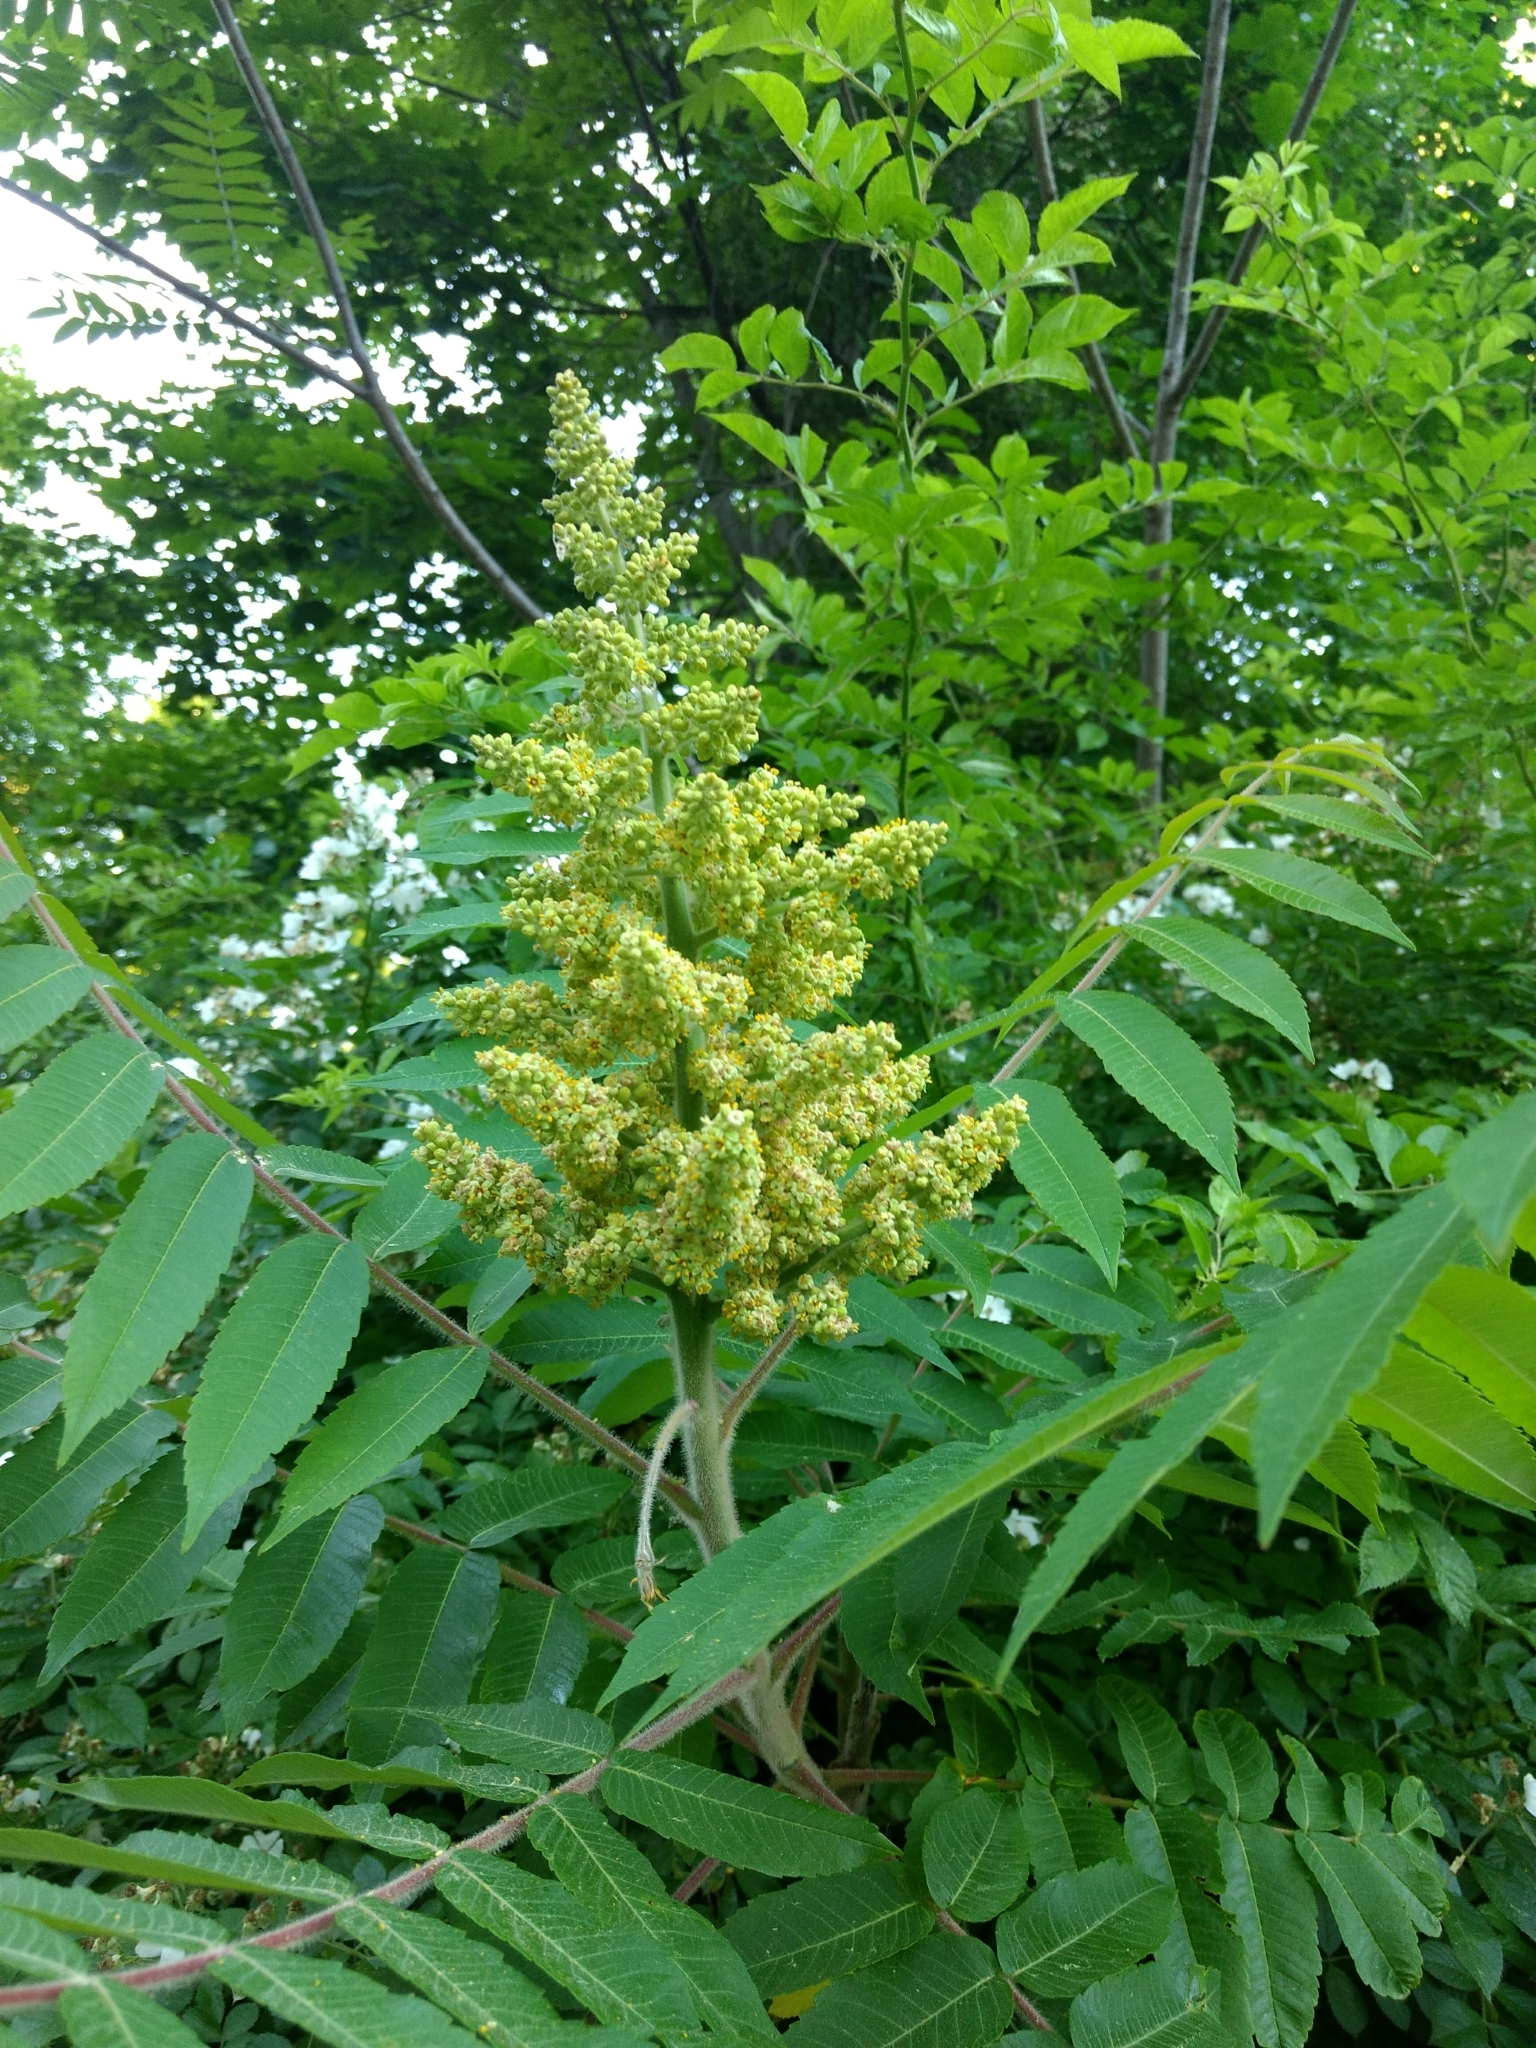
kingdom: Plantae
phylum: Tracheophyta
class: Magnoliopsida
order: Sapindales
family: Anacardiaceae
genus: Rhus
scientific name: Rhus typhina
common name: Staghorn sumac
